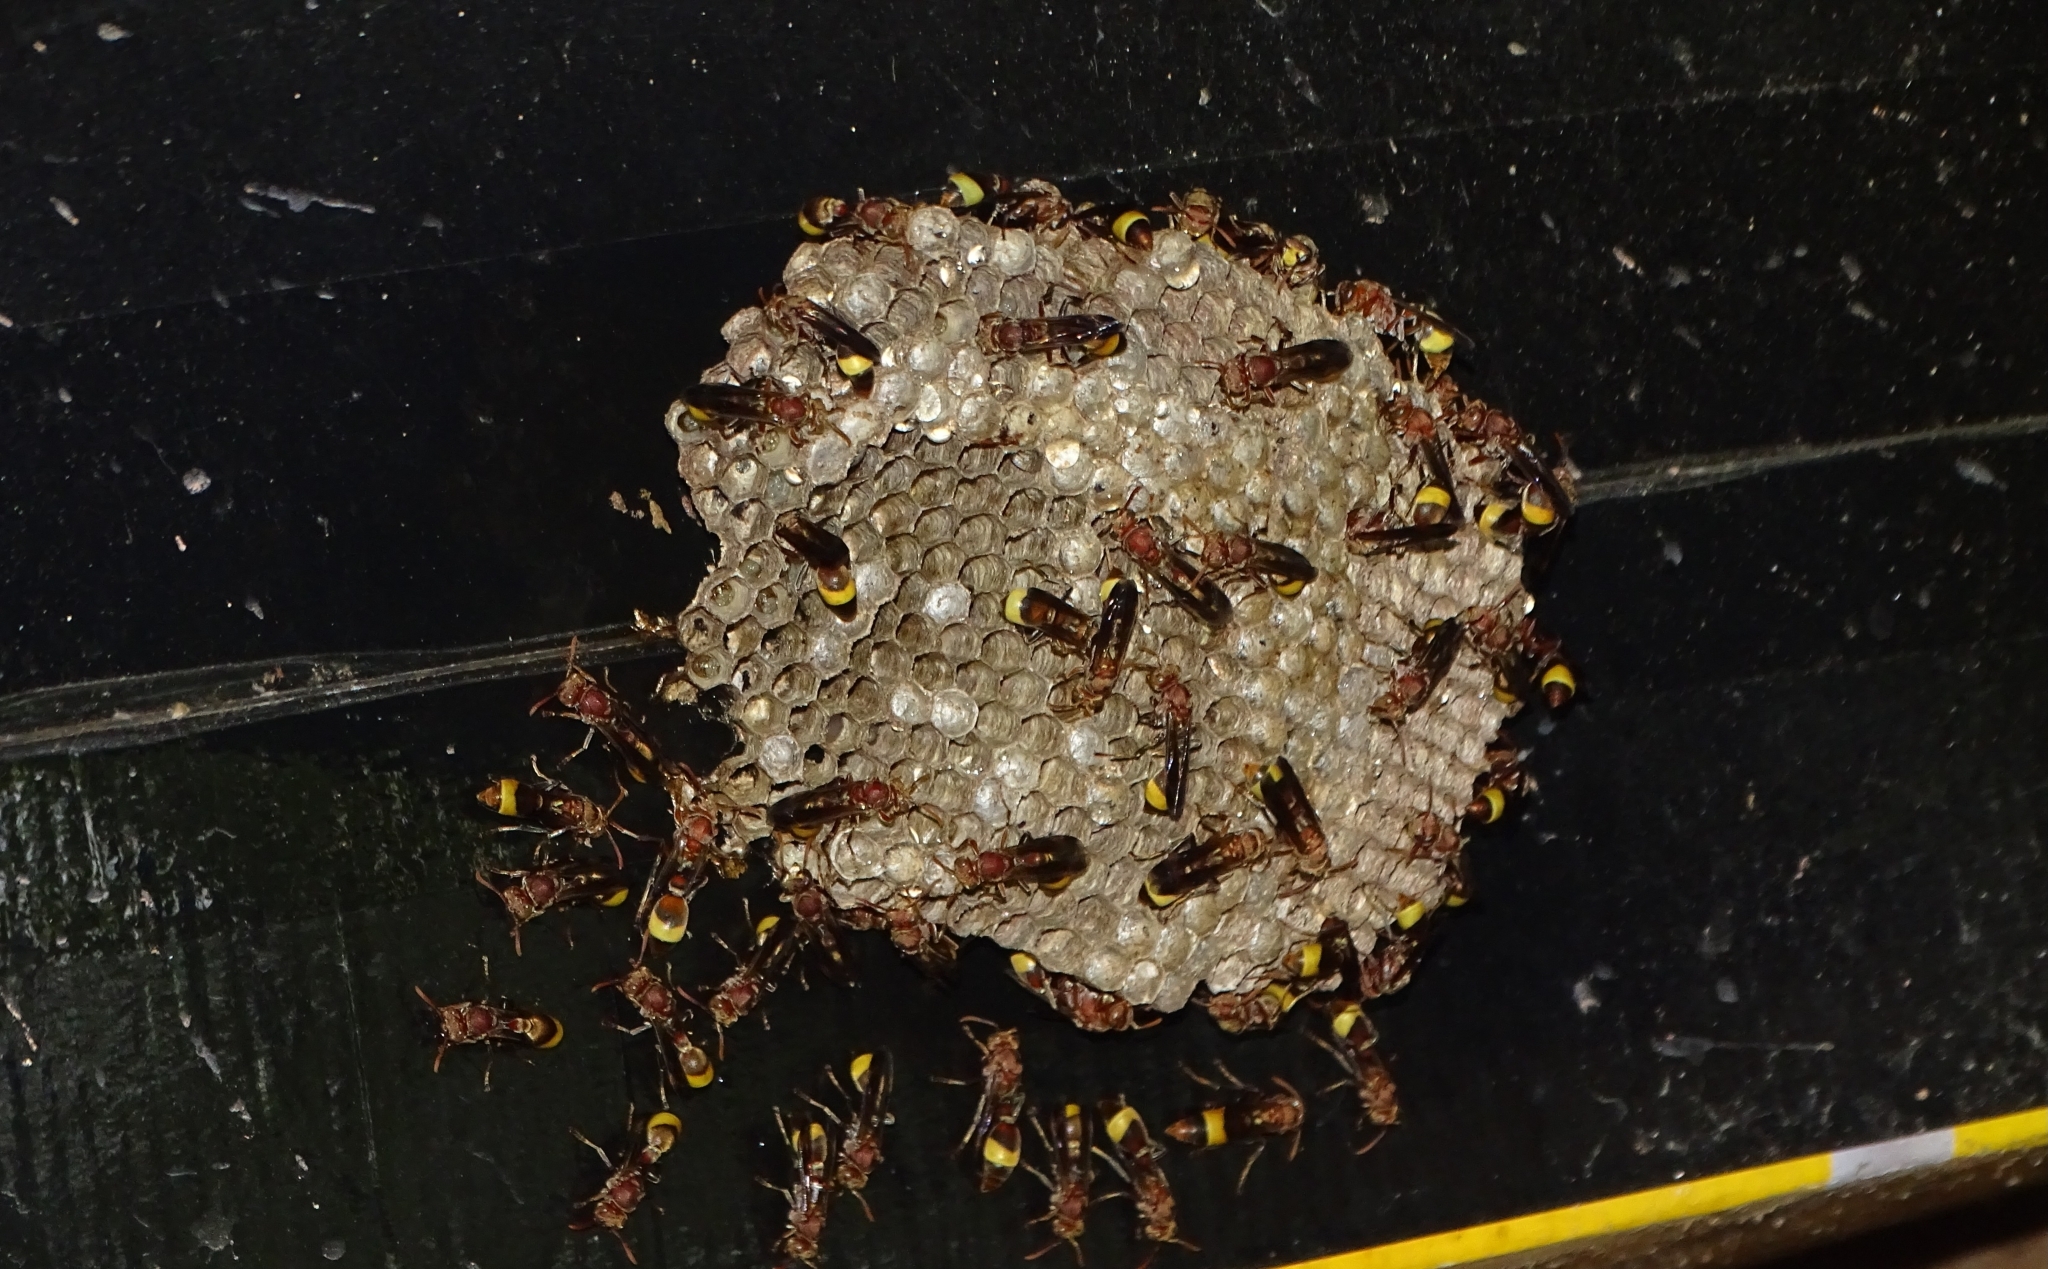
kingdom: Animalia
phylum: Arthropoda
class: Insecta
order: Hymenoptera
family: Vespidae
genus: Ropalidia
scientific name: Ropalidia
